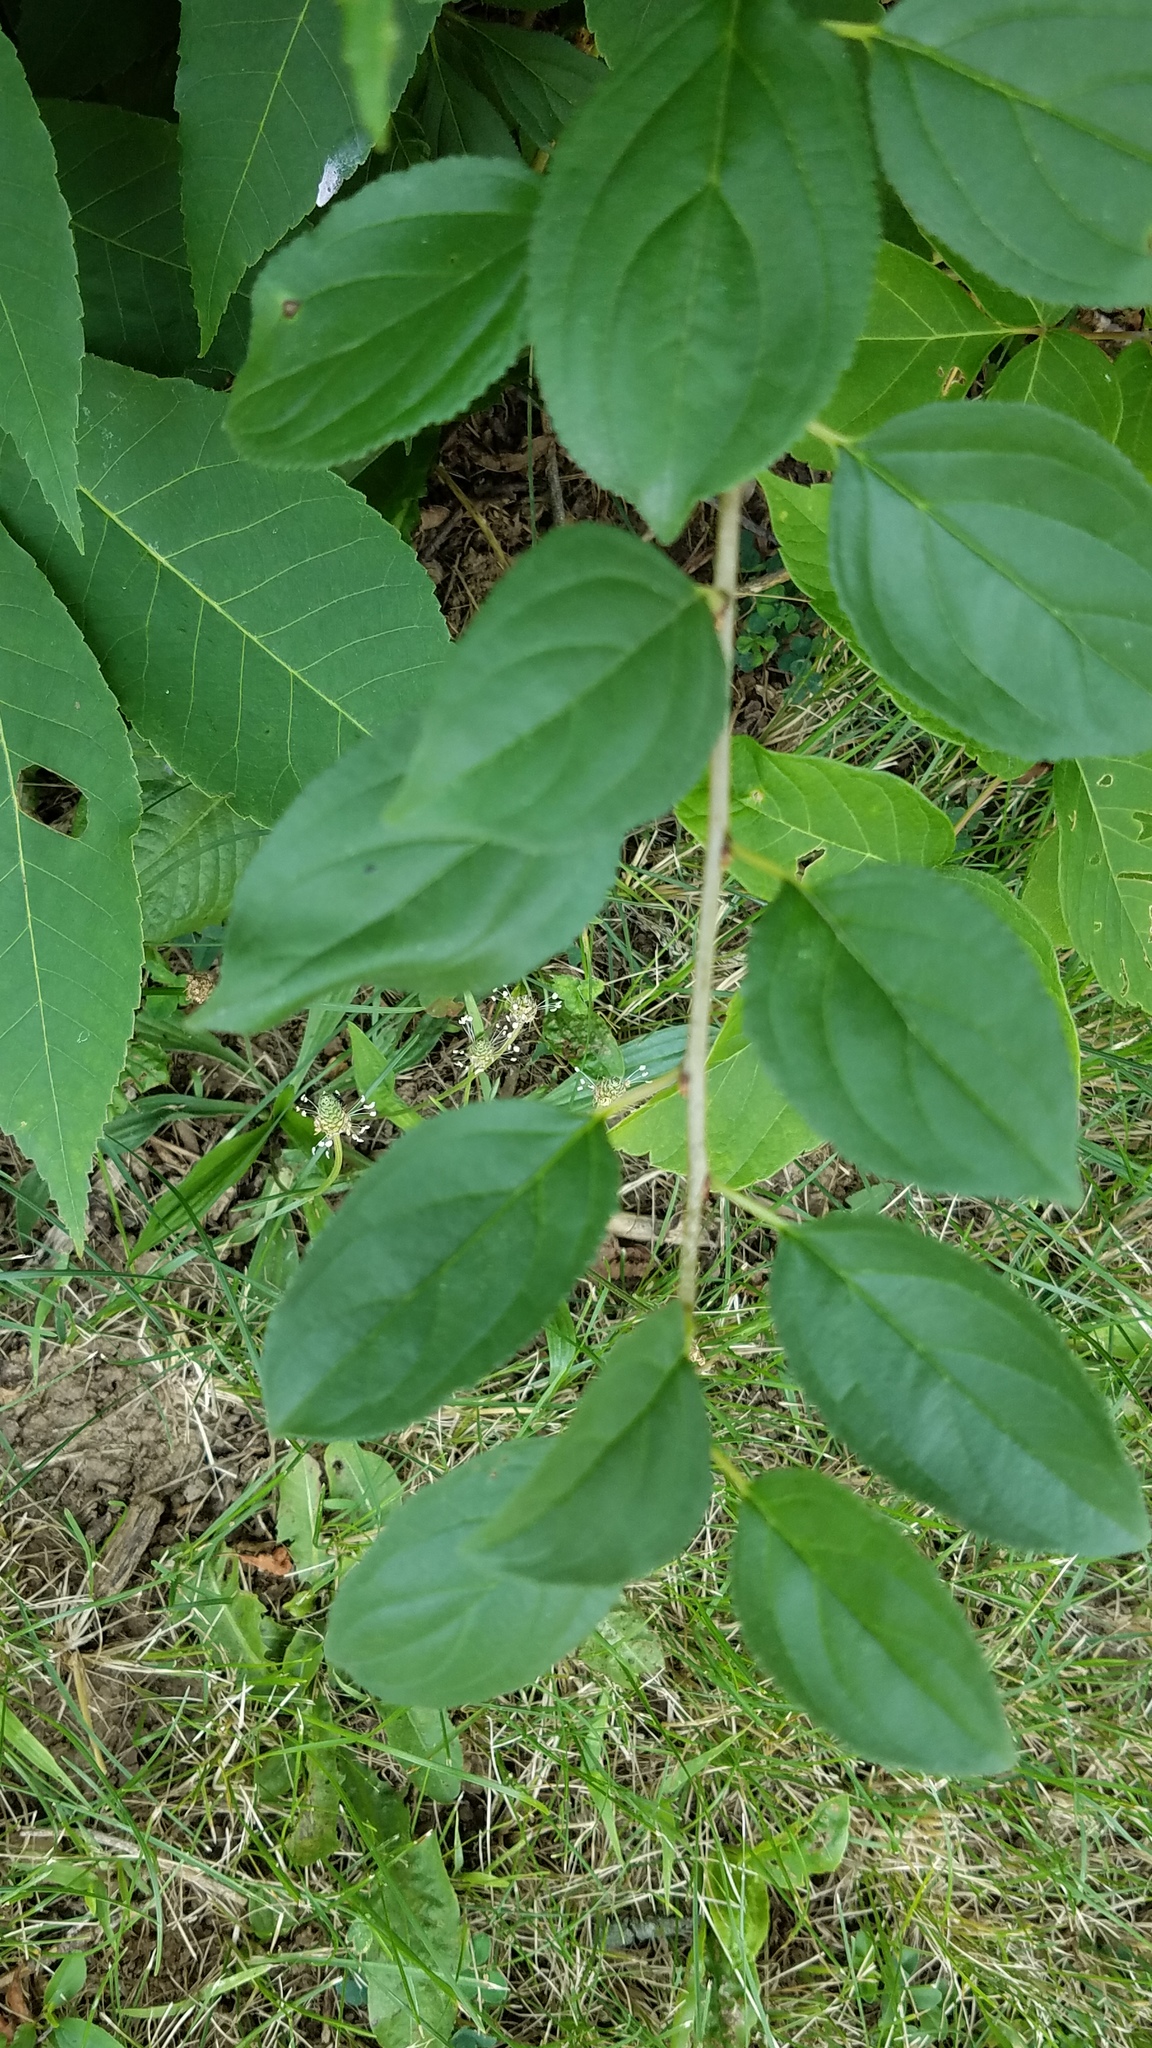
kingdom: Plantae
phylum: Tracheophyta
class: Magnoliopsida
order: Rosales
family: Rhamnaceae
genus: Rhamnus
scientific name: Rhamnus cathartica
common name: Common buckthorn
